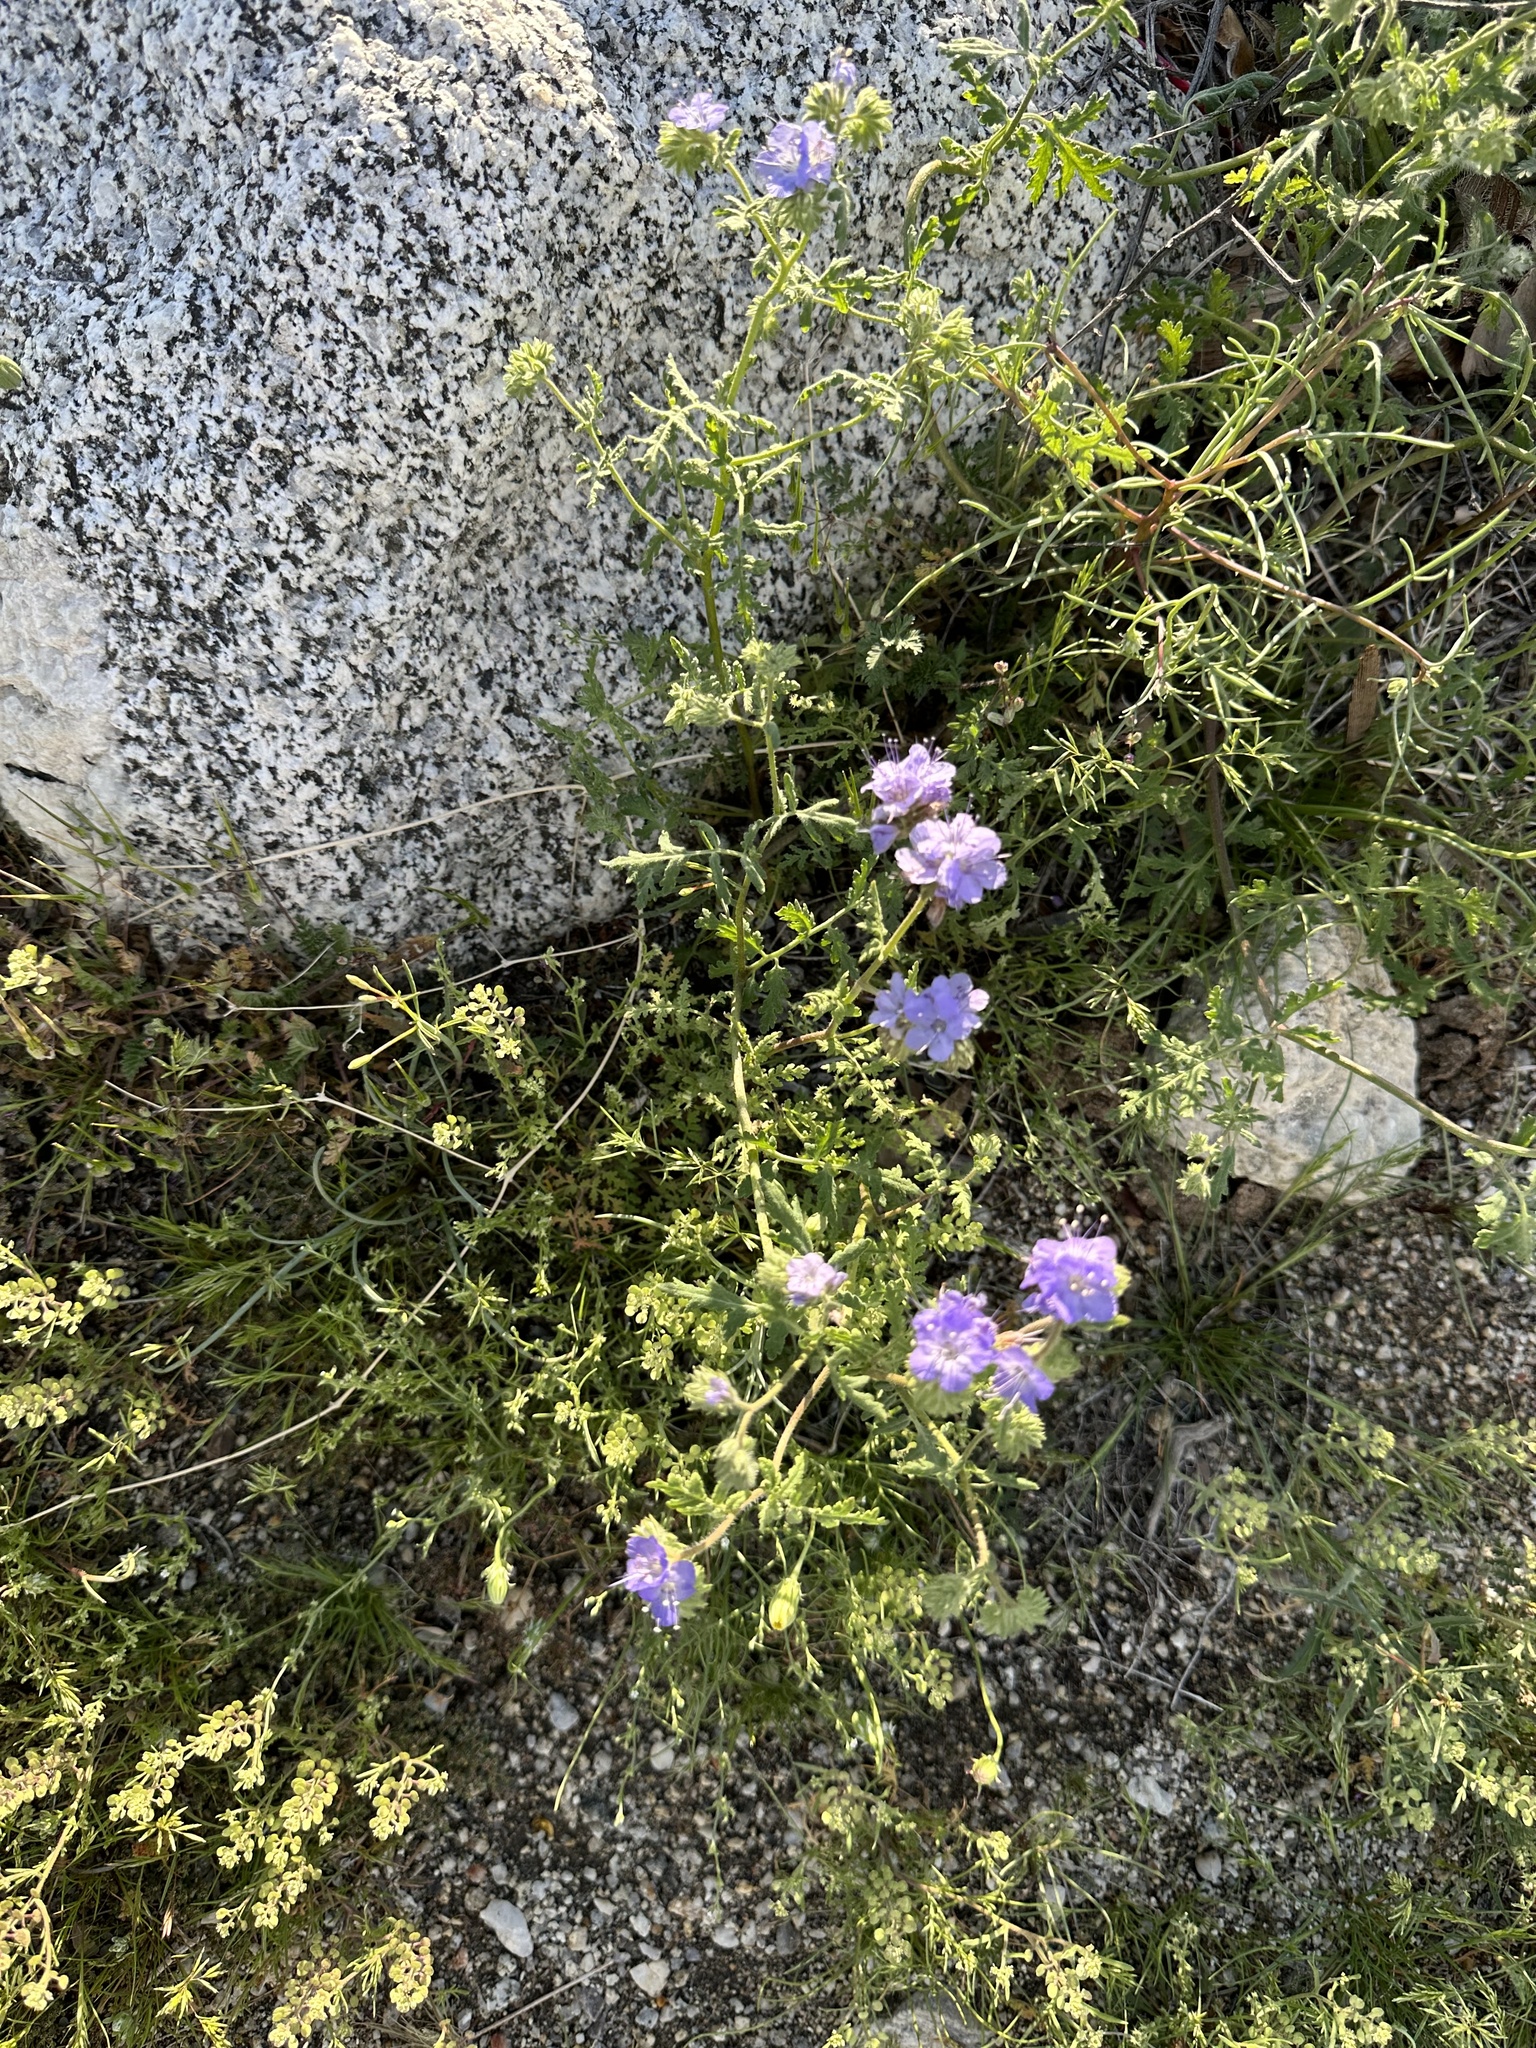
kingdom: Plantae
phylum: Tracheophyta
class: Magnoliopsida
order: Boraginales
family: Hydrophyllaceae
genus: Phacelia
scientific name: Phacelia distans
